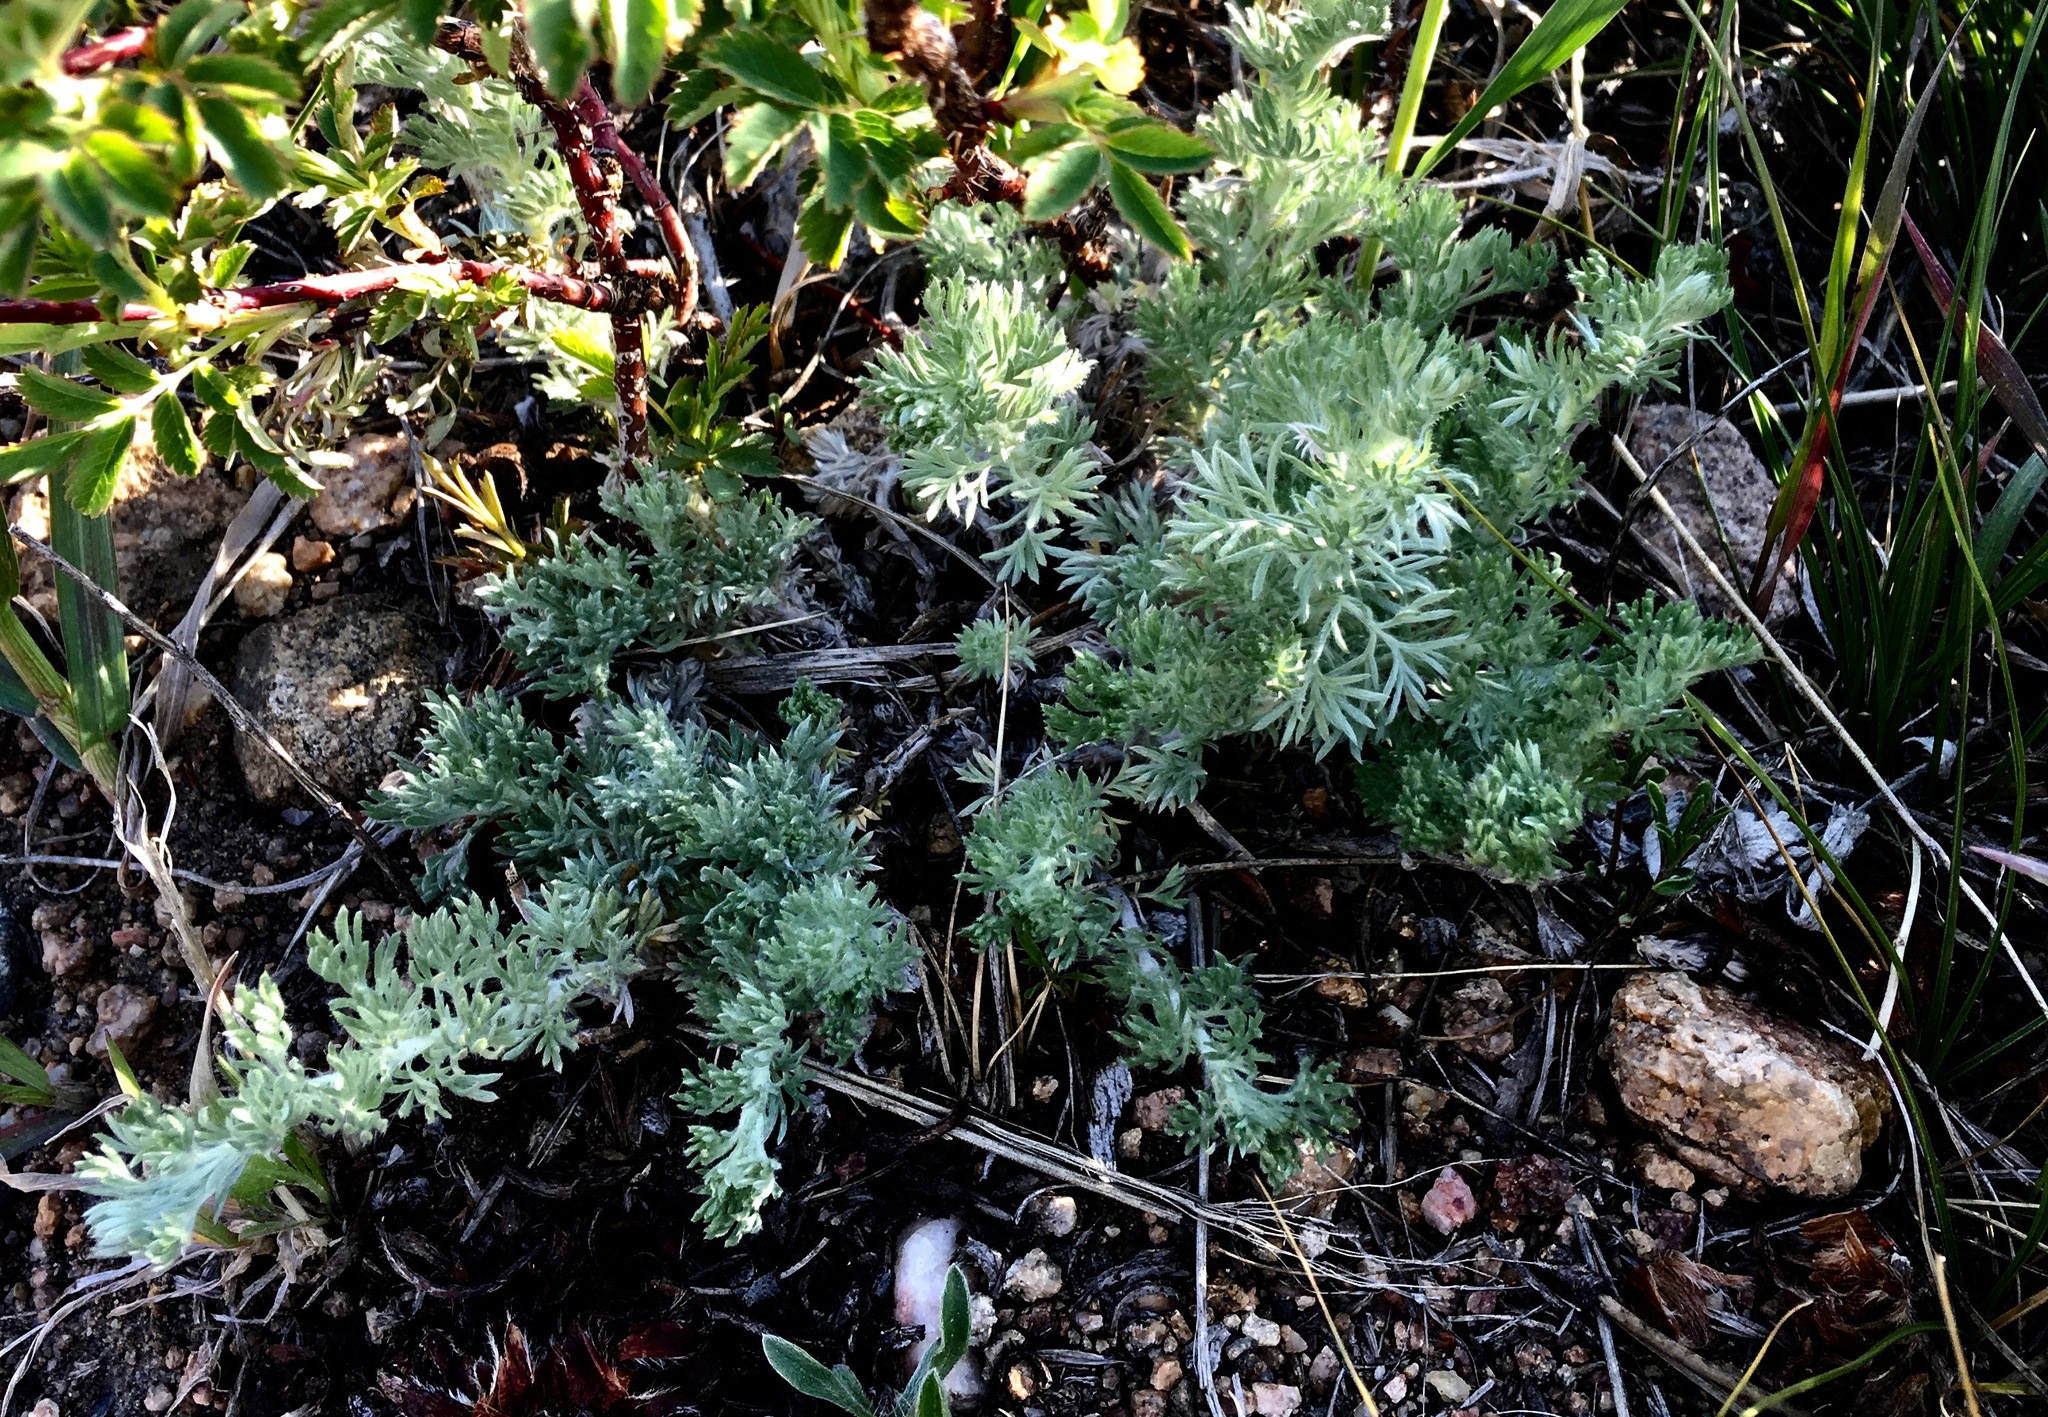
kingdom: Plantae
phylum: Tracheophyta
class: Magnoliopsida
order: Asterales
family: Asteraceae
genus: Artemisia
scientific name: Artemisia frigida
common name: Prairie sagewort
